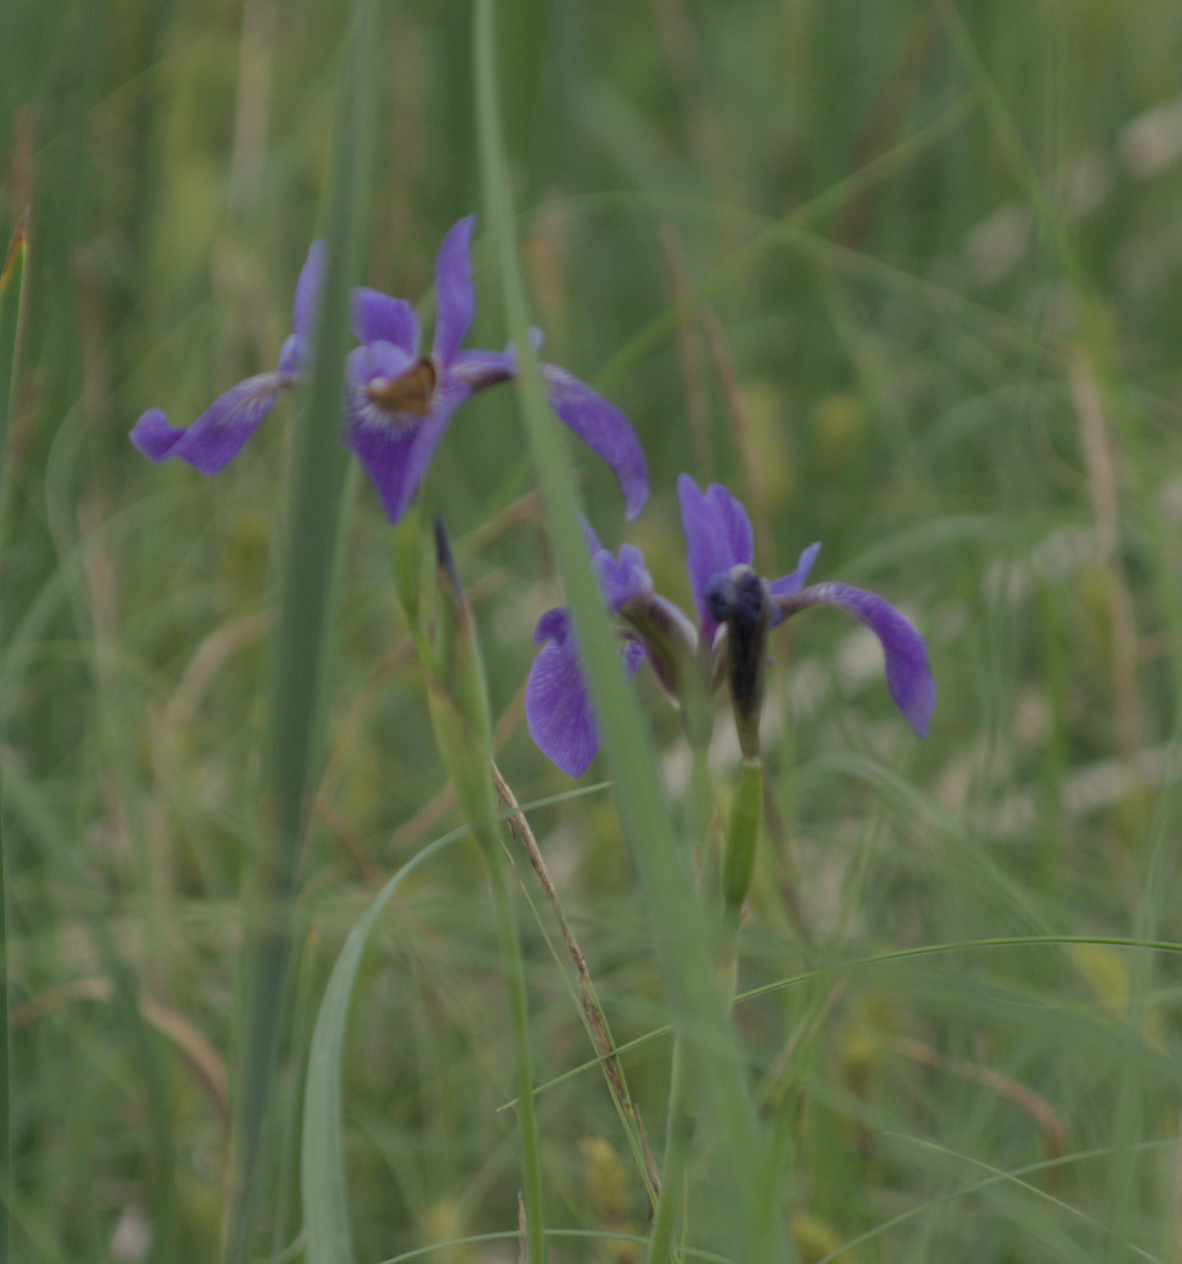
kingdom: Plantae
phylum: Tracheophyta
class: Liliopsida
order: Asparagales
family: Iridaceae
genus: Iris
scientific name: Iris versicolor
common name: Purple iris
